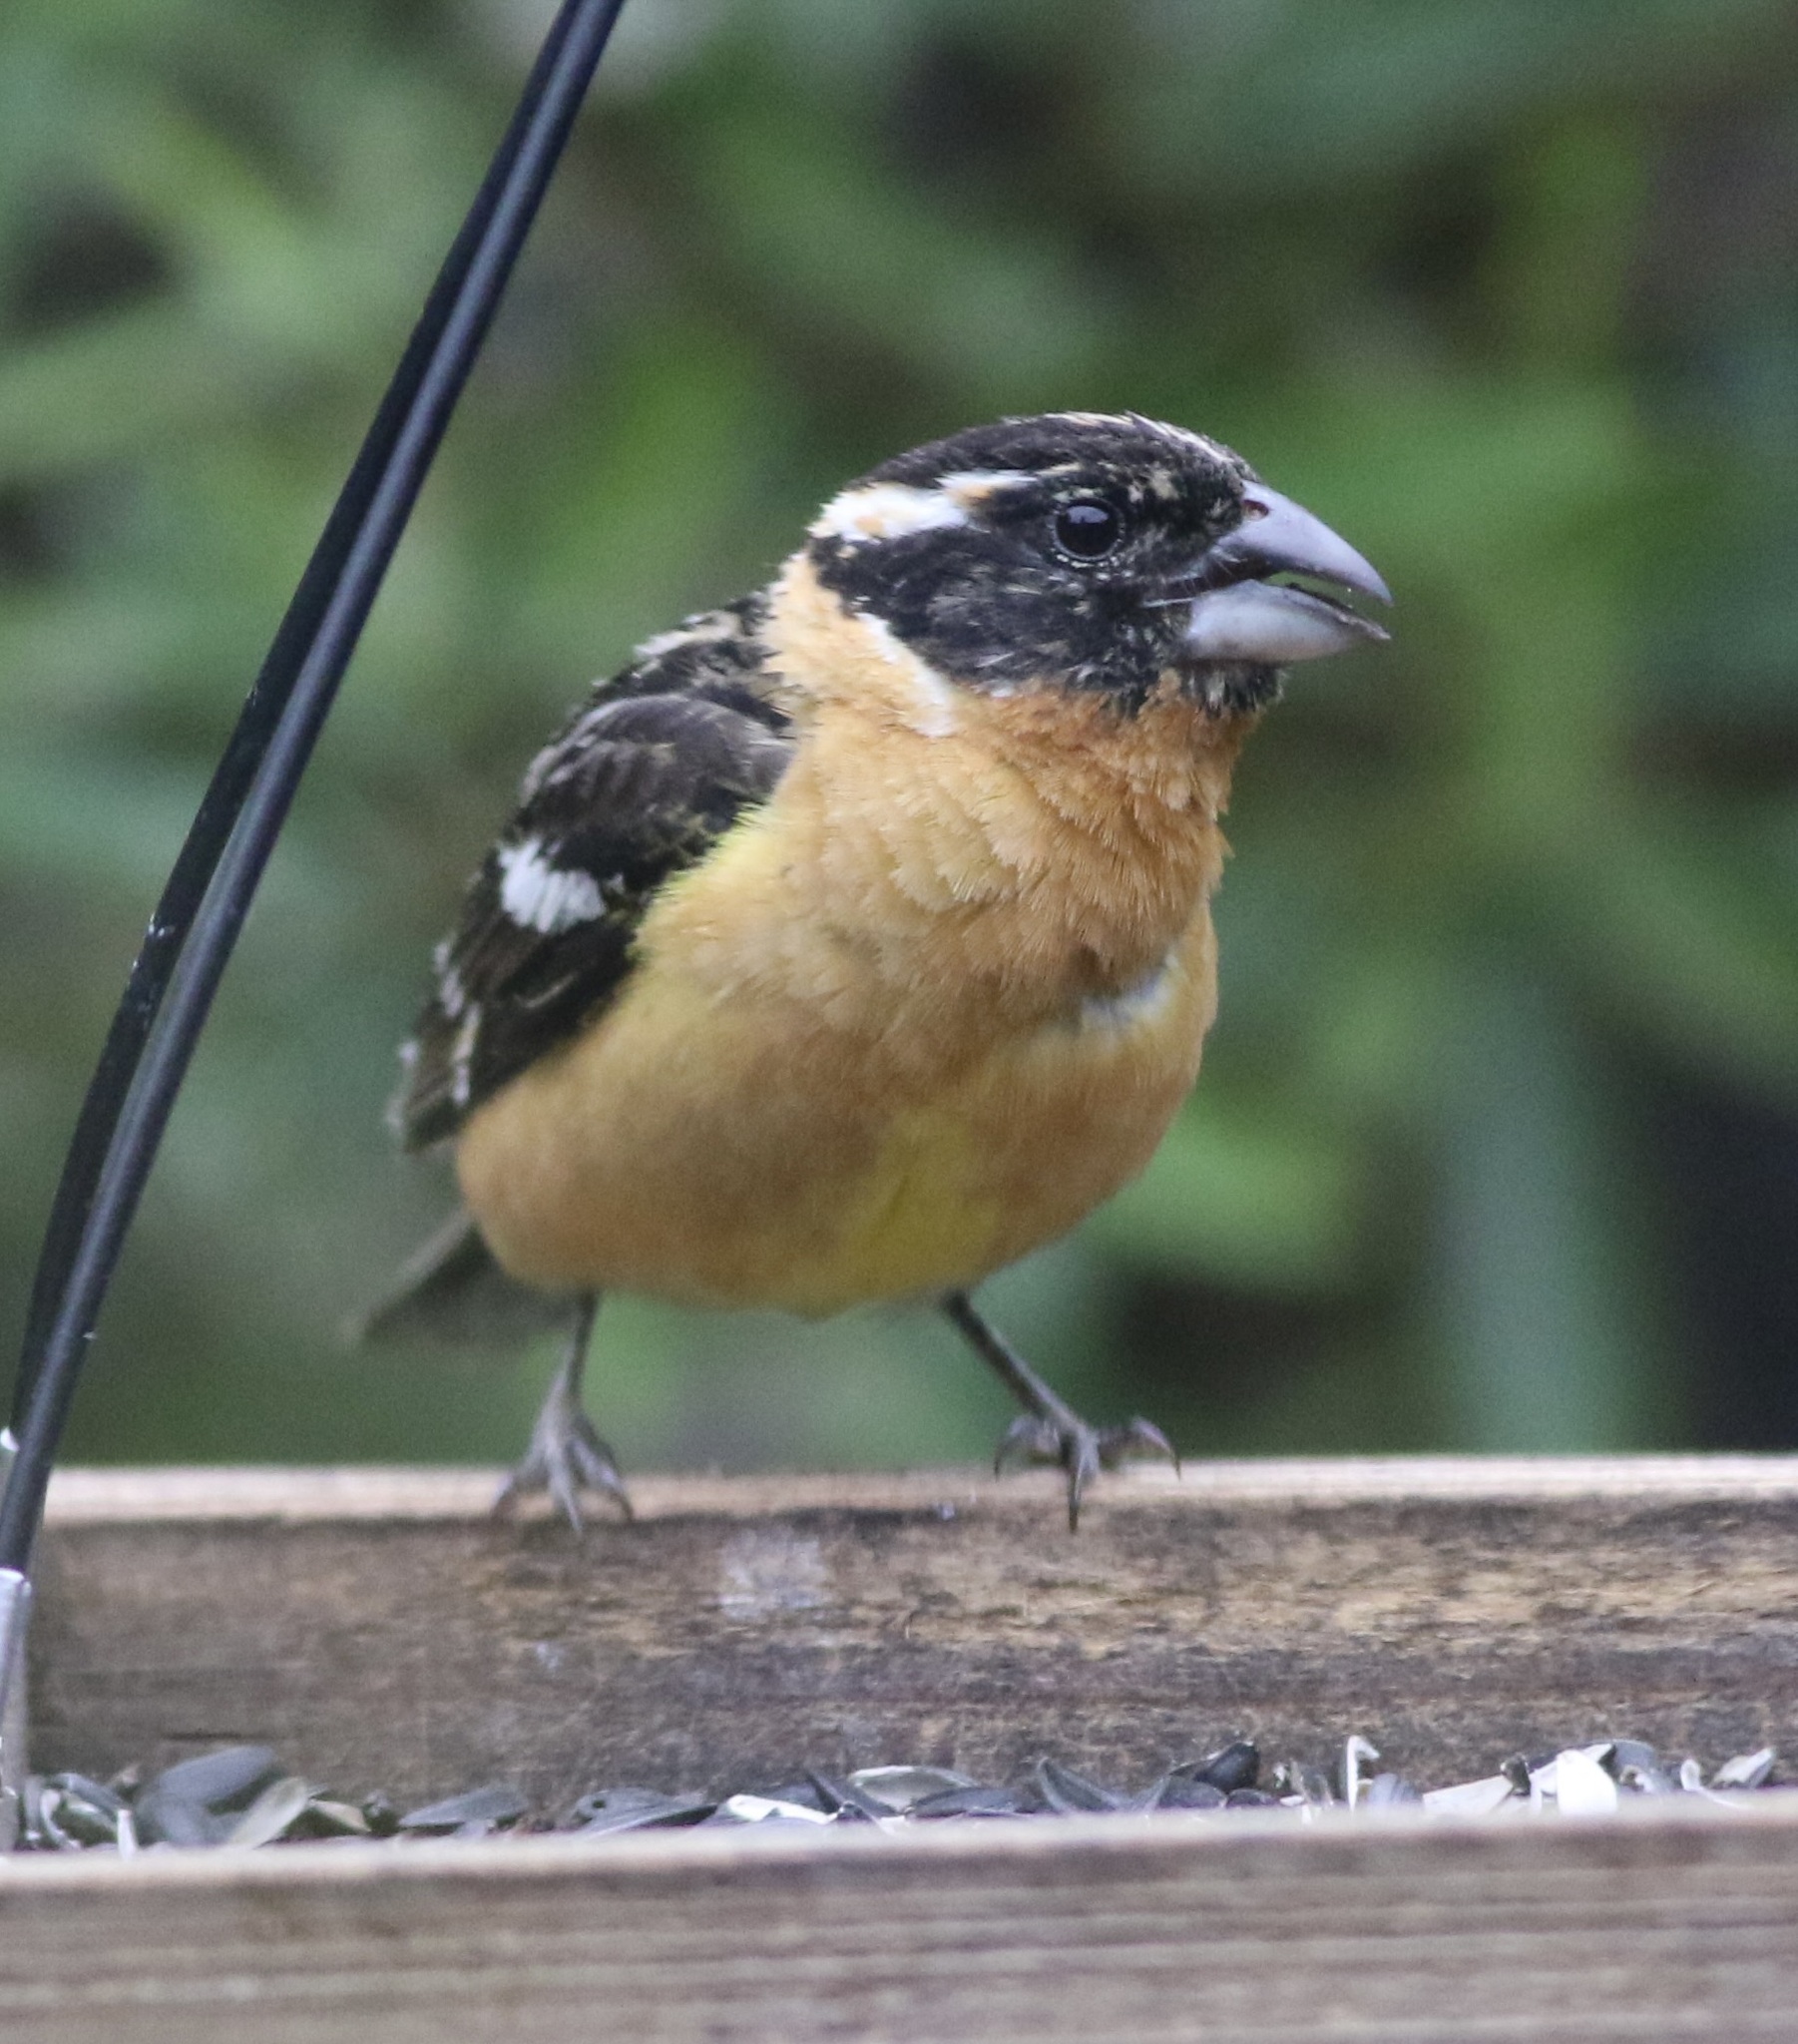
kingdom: Animalia
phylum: Chordata
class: Aves
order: Passeriformes
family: Cardinalidae
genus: Pheucticus
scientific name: Pheucticus melanocephalus
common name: Black-headed grosbeak
